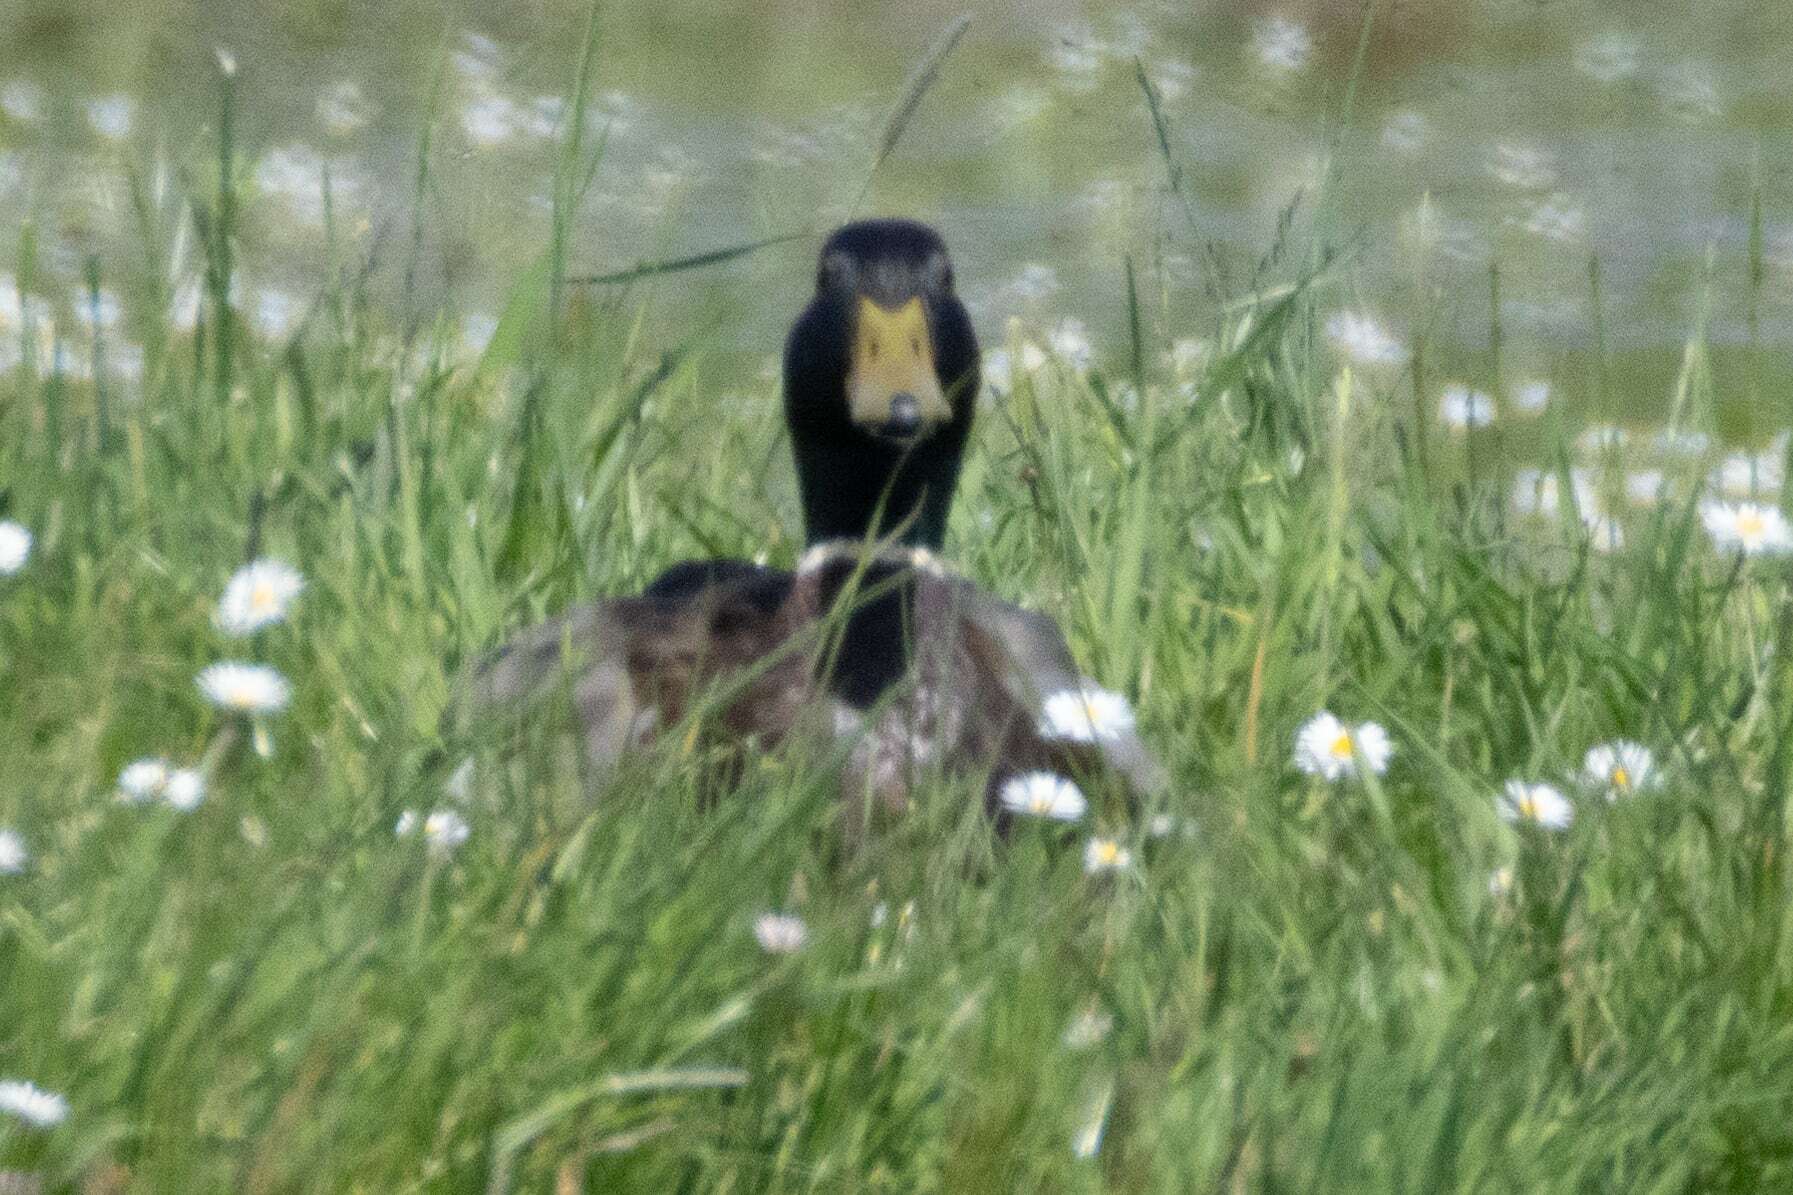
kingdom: Animalia
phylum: Chordata
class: Aves
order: Anseriformes
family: Anatidae
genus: Anas
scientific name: Anas platyrhynchos
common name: Mallard
